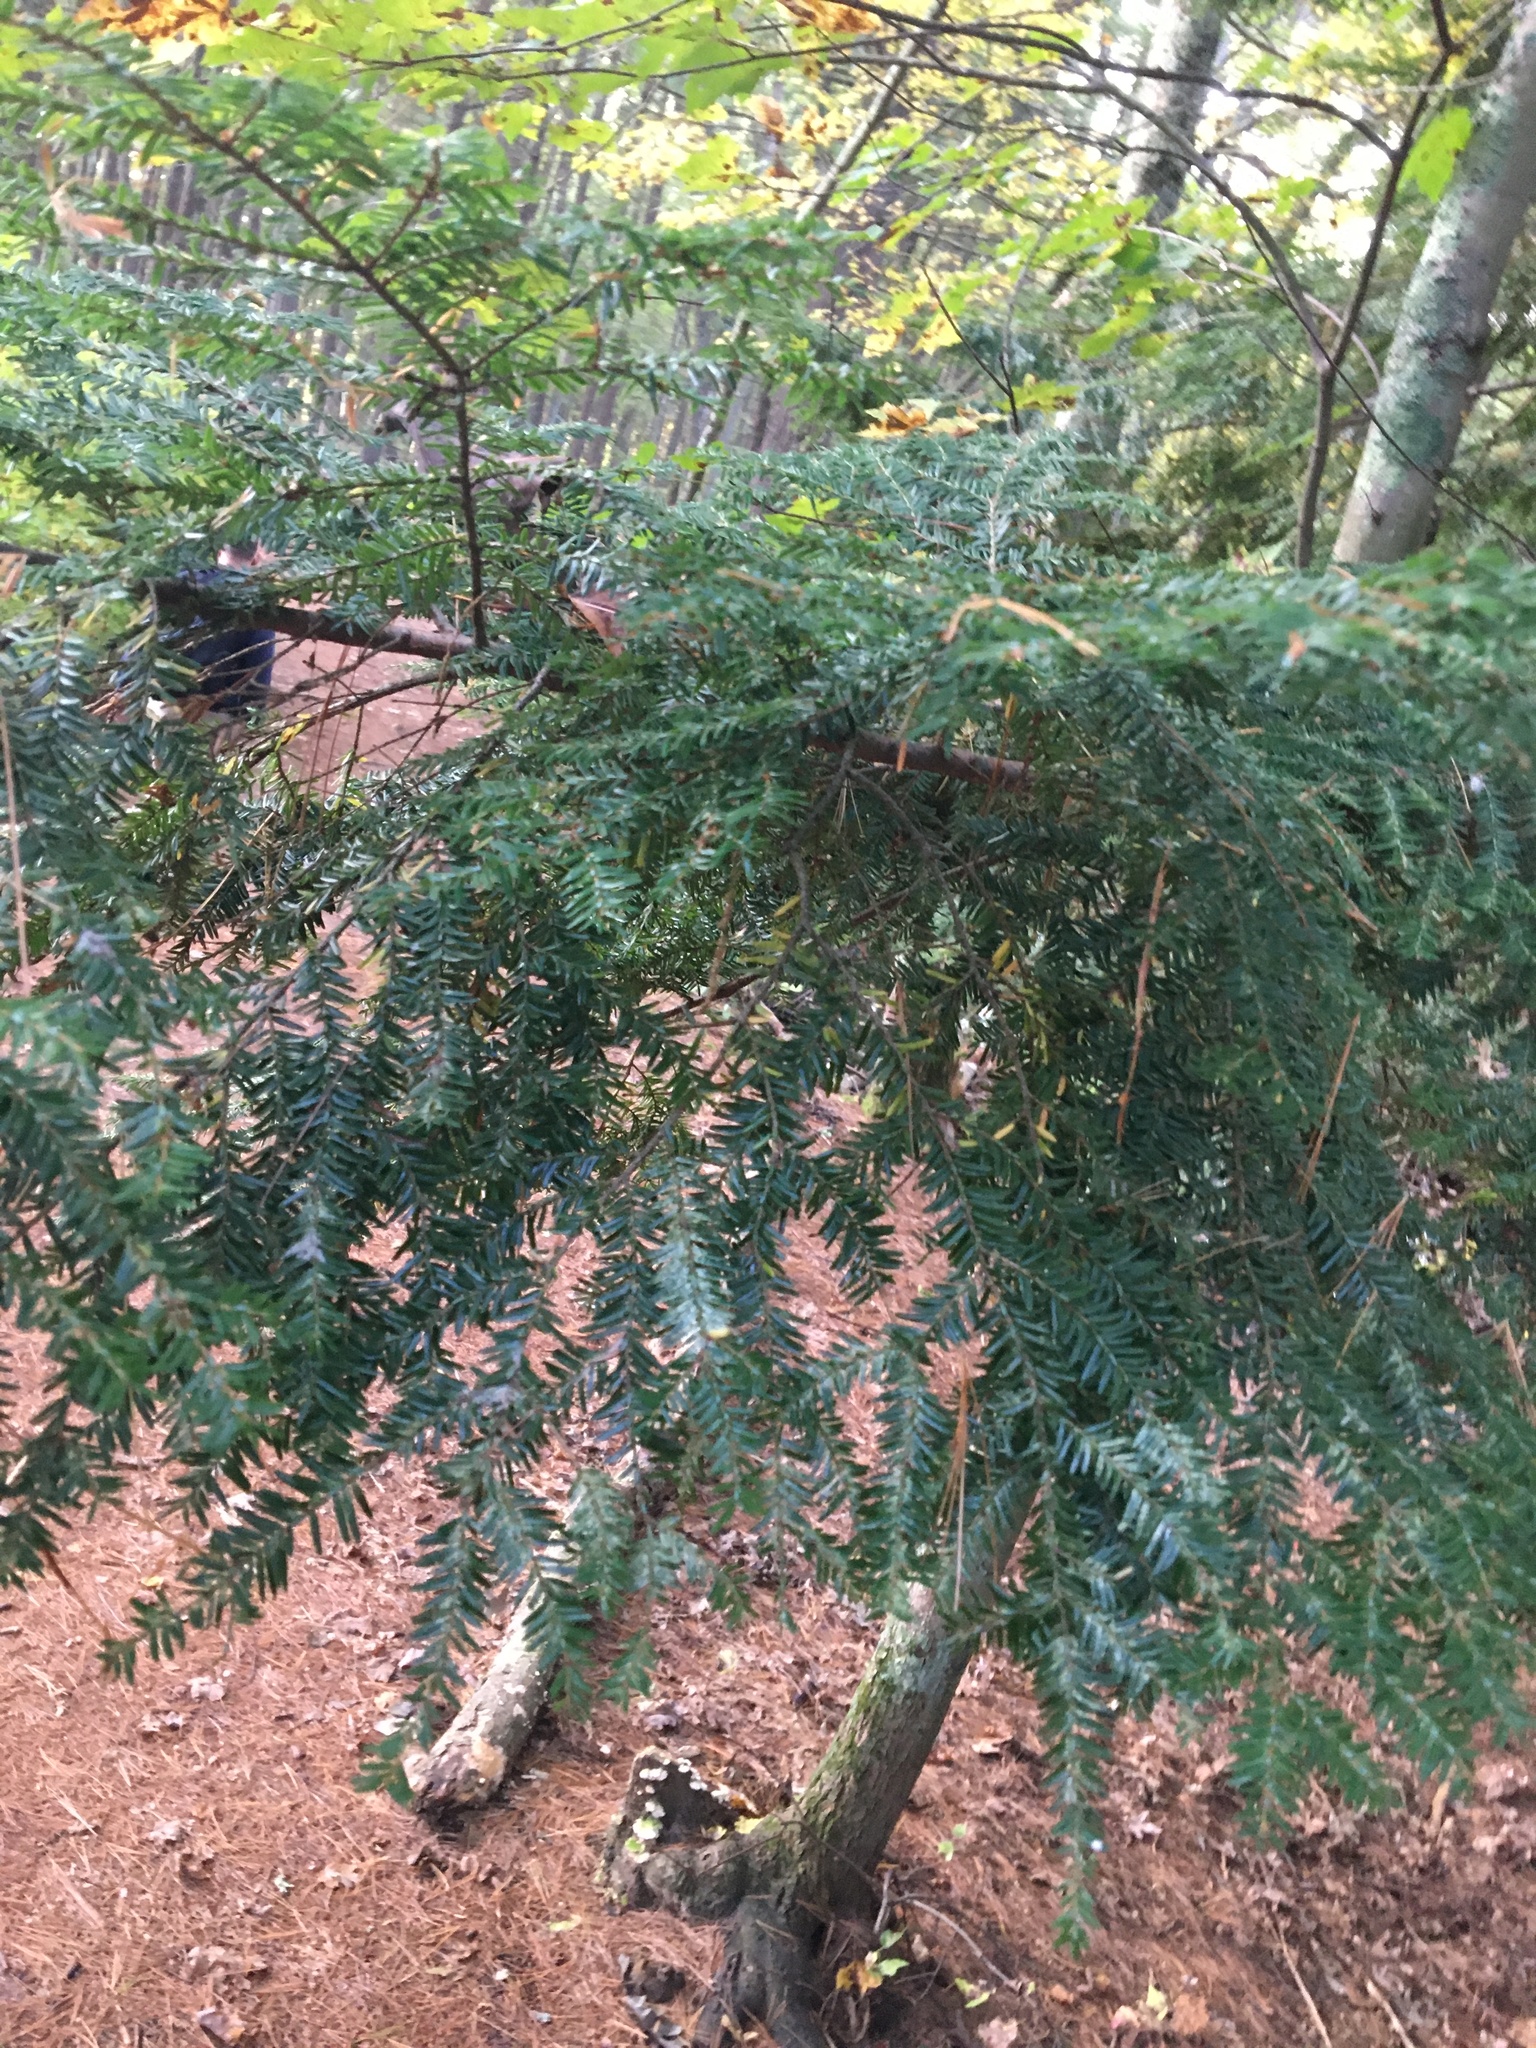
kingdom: Plantae
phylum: Tracheophyta
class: Pinopsida
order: Pinales
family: Pinaceae
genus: Tsuga
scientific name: Tsuga canadensis
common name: Eastern hemlock
